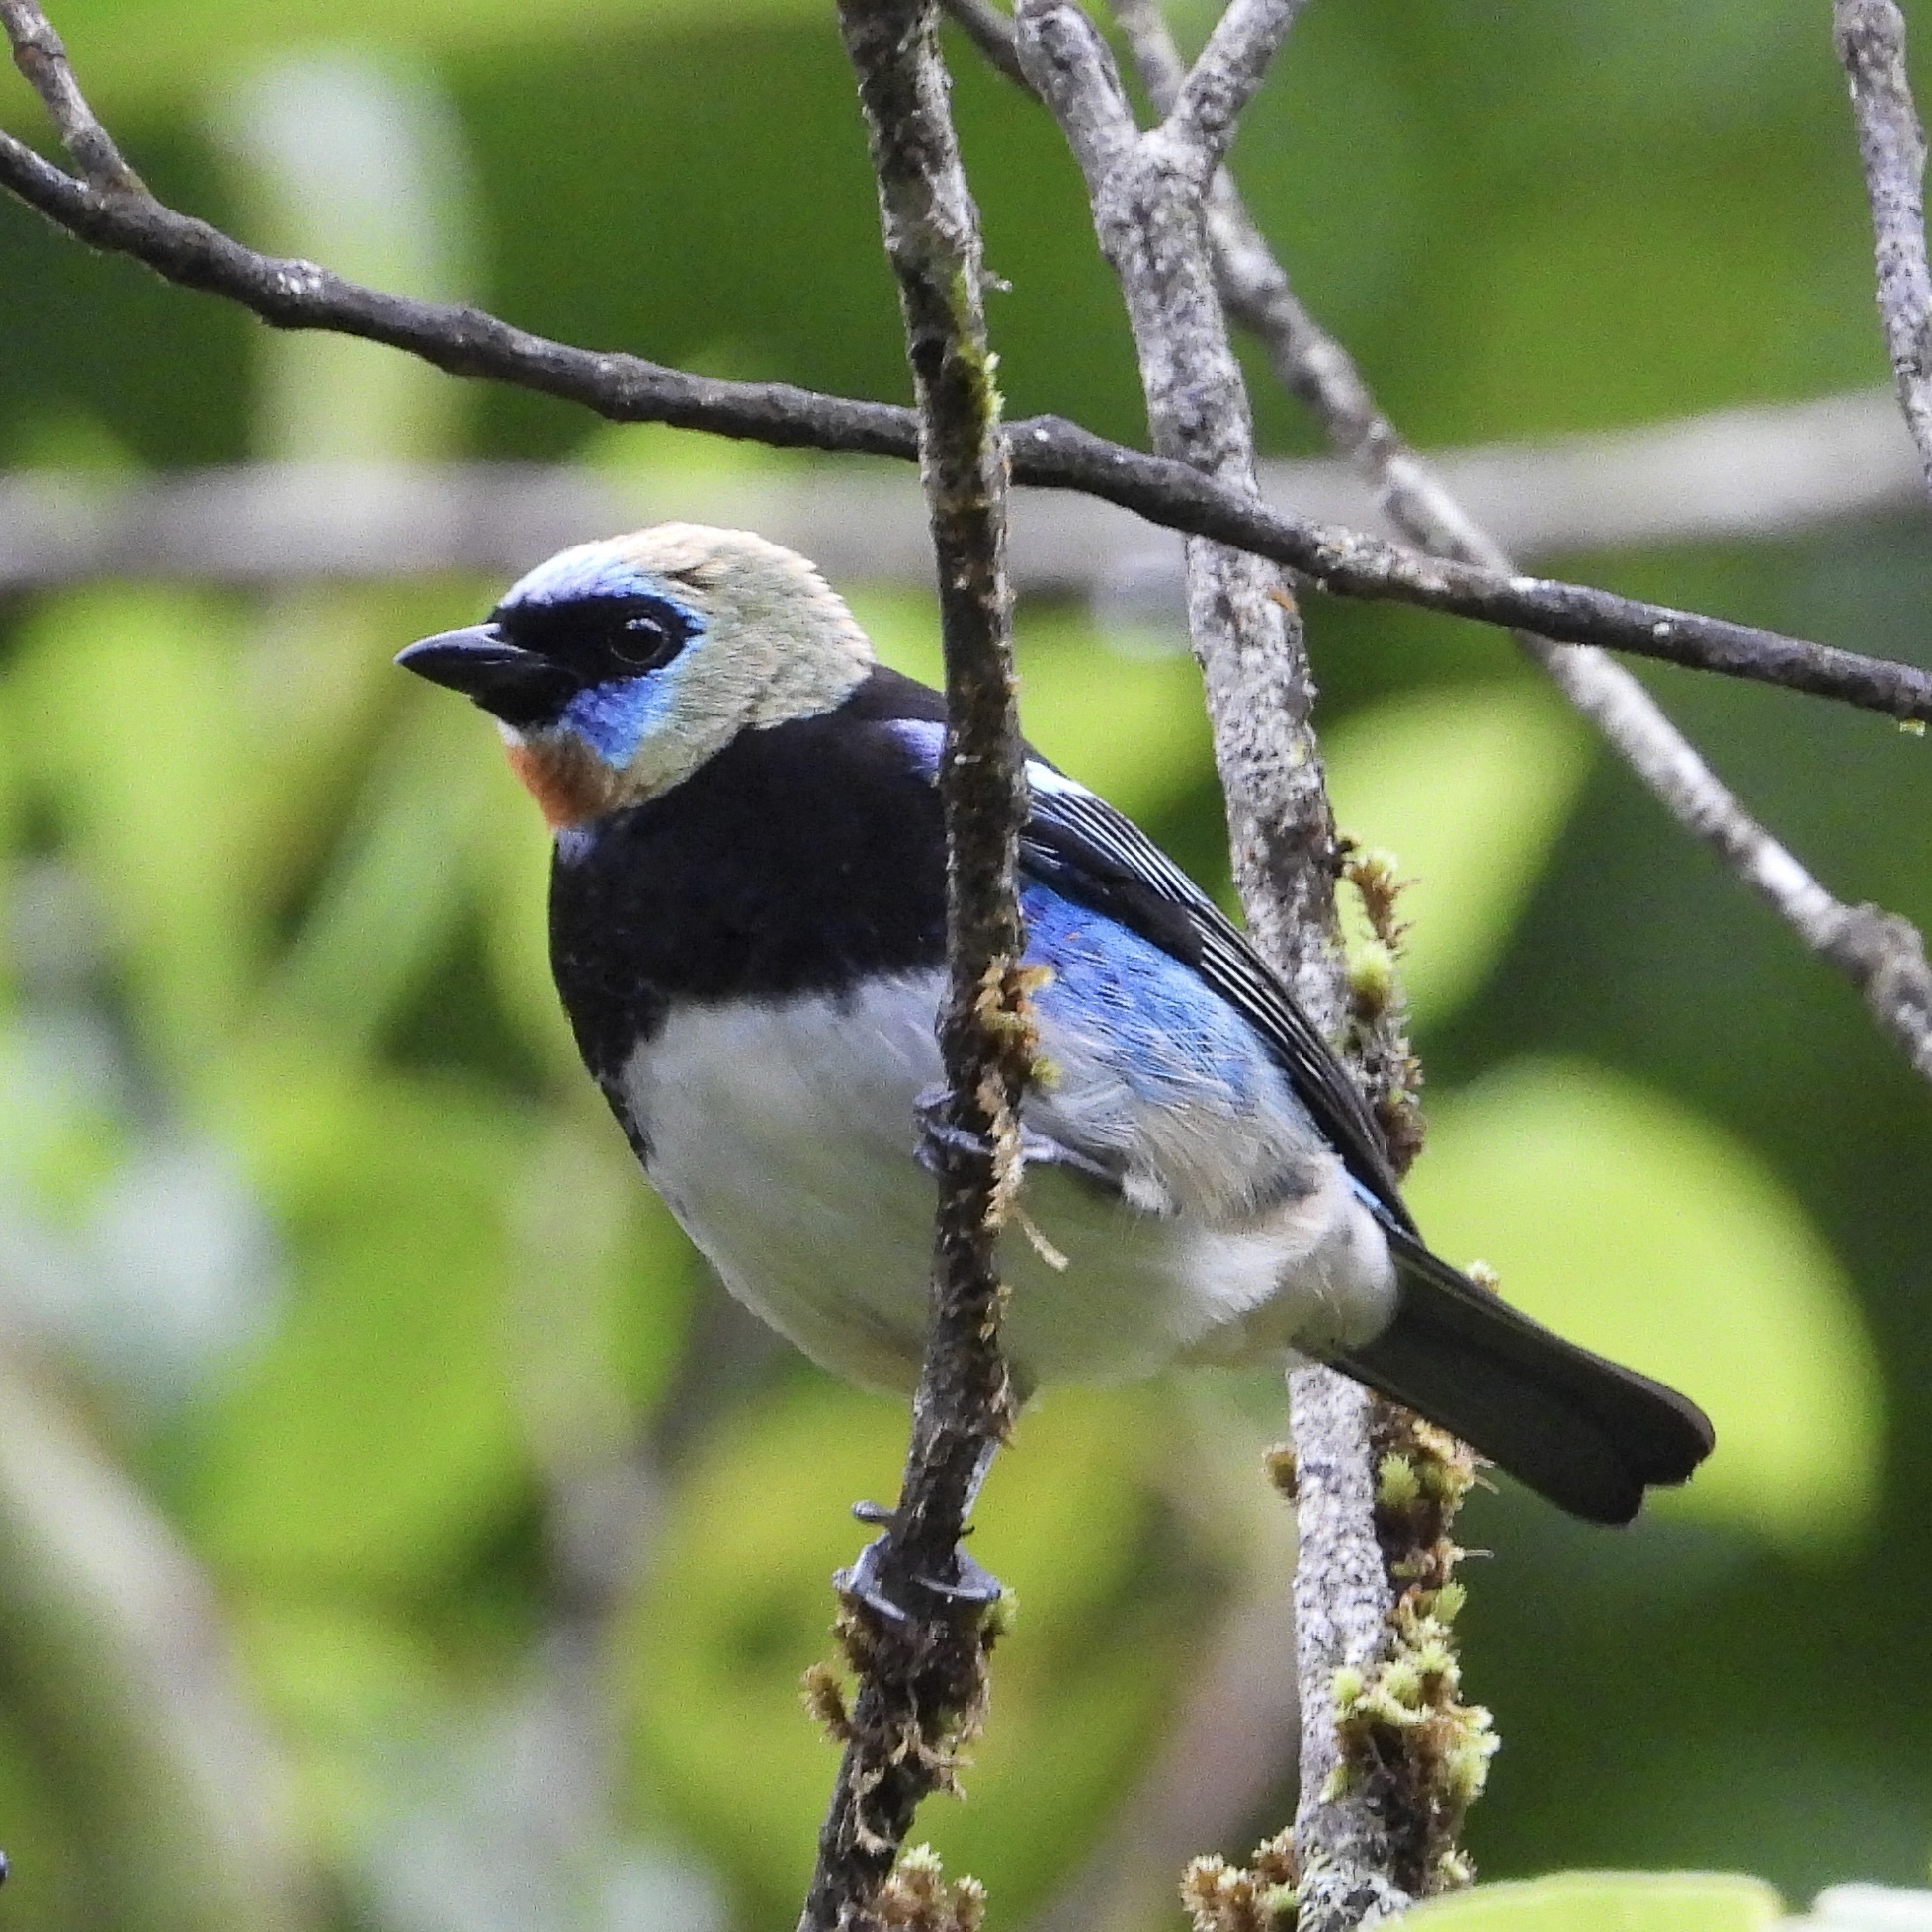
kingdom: Animalia
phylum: Chordata
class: Aves
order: Passeriformes
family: Thraupidae
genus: Stilpnia
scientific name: Stilpnia larvata
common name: Golden-hooded tanager
